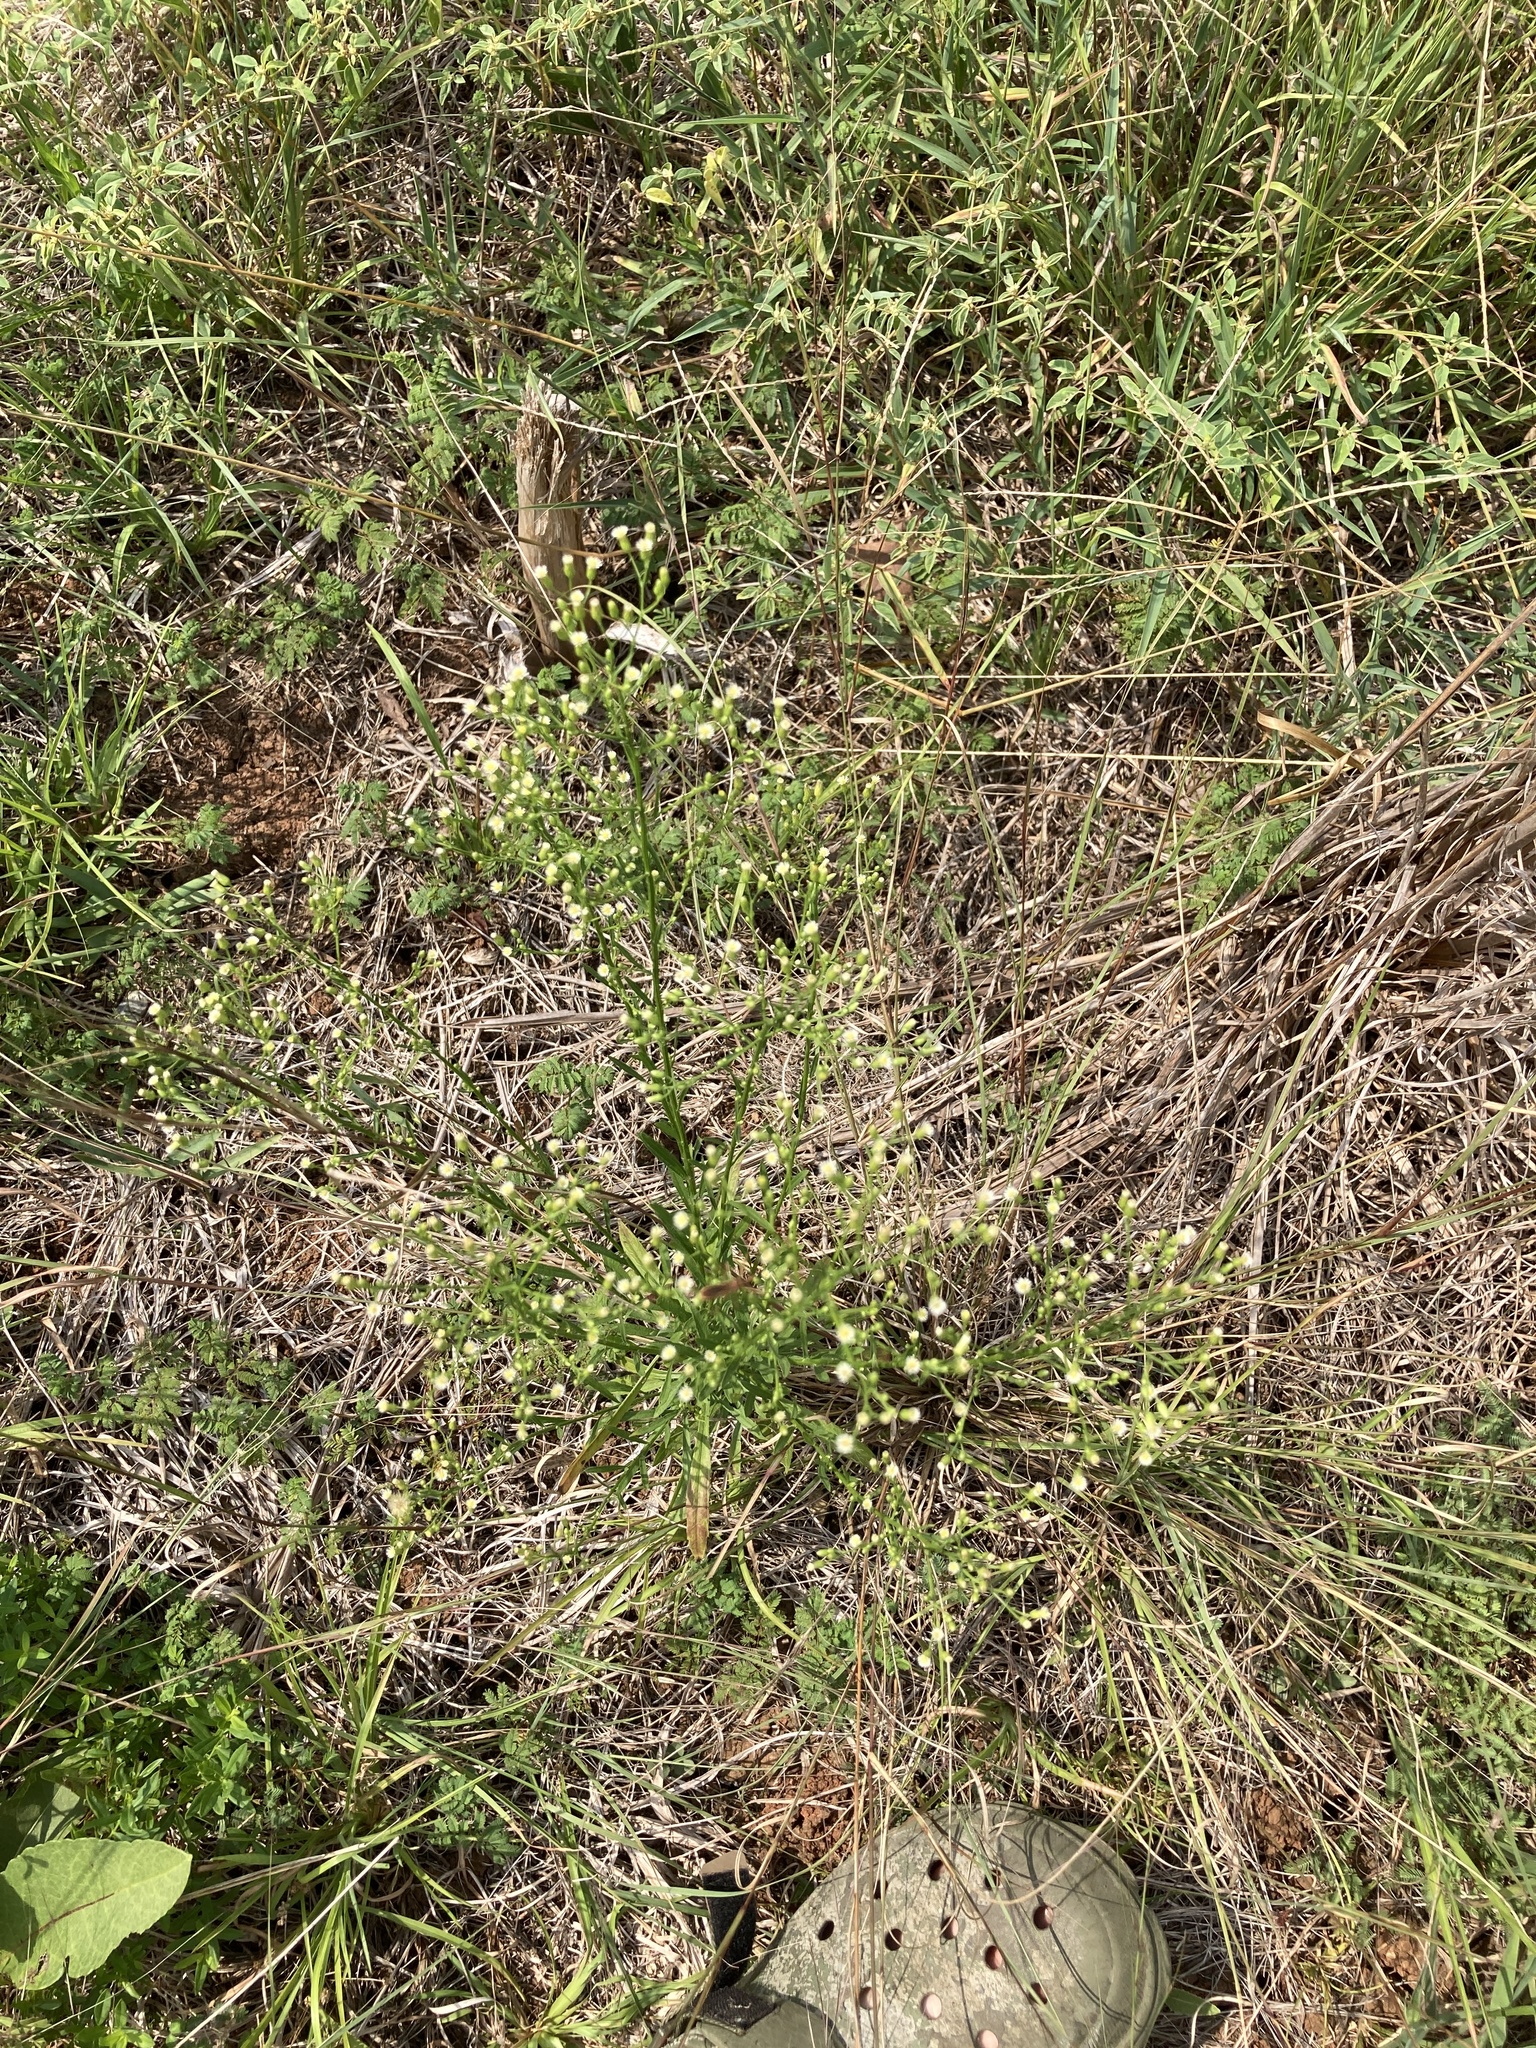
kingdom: Plantae
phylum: Tracheophyta
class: Magnoliopsida
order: Asterales
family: Asteraceae
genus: Erigeron
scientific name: Erigeron canadensis
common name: Canadian fleabane
